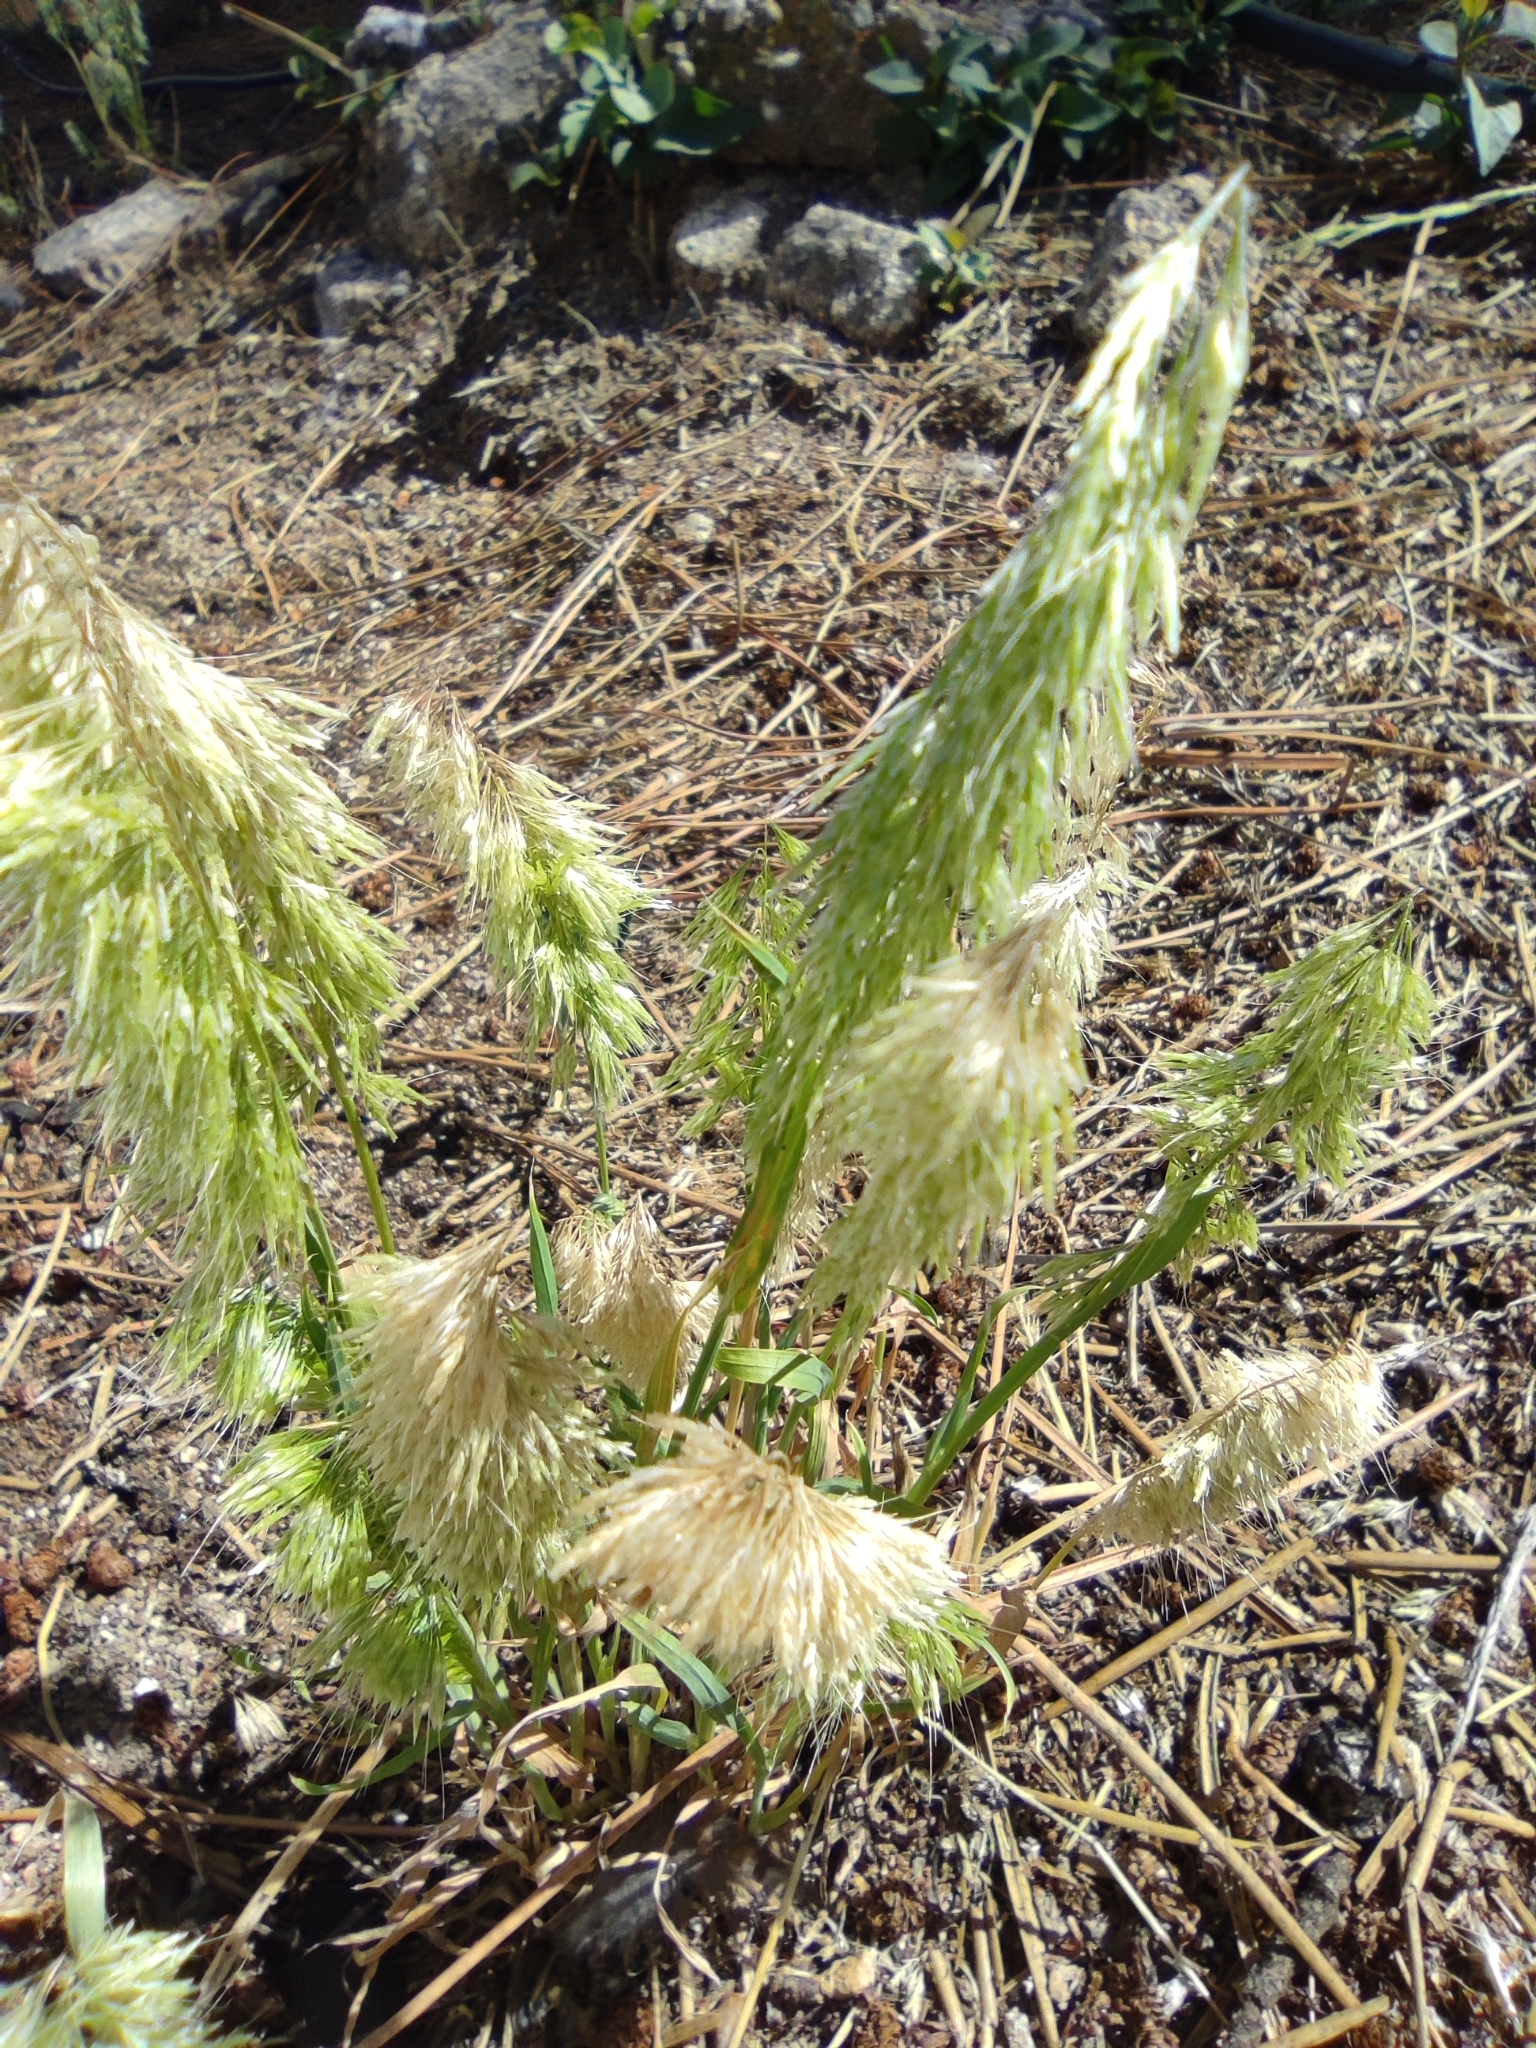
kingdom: Plantae
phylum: Tracheophyta
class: Liliopsida
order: Poales
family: Poaceae
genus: Lamarckia
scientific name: Lamarckia aurea
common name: Golden dog's-tail
